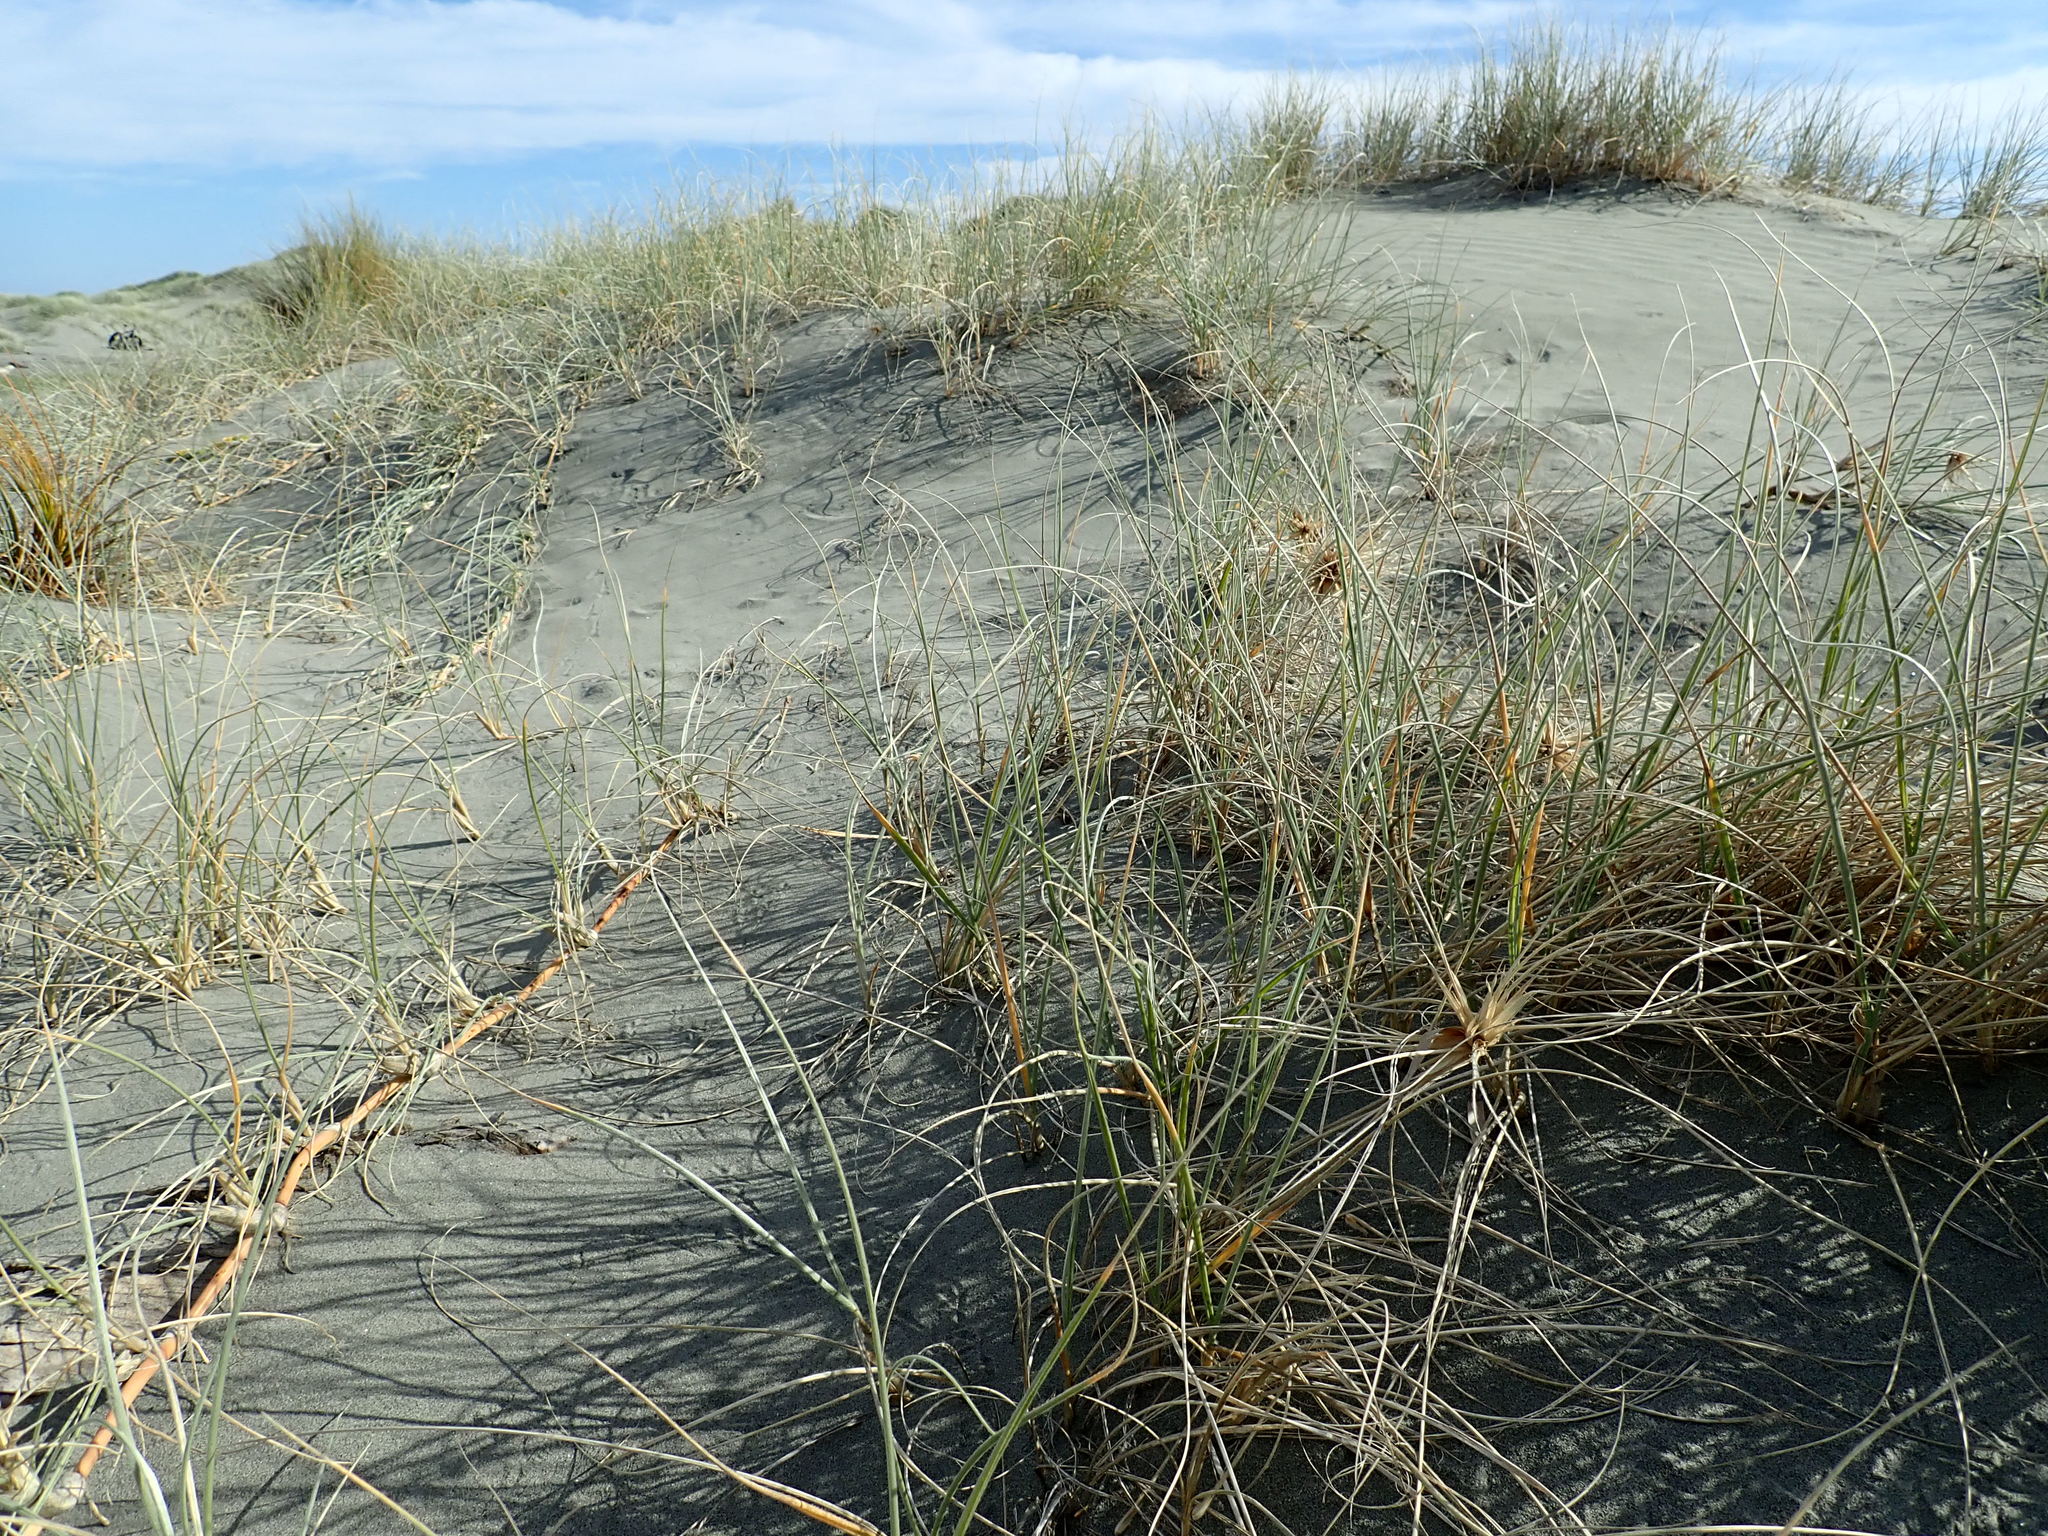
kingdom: Plantae
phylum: Tracheophyta
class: Liliopsida
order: Poales
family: Poaceae
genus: Spinifex
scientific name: Spinifex sericeus
